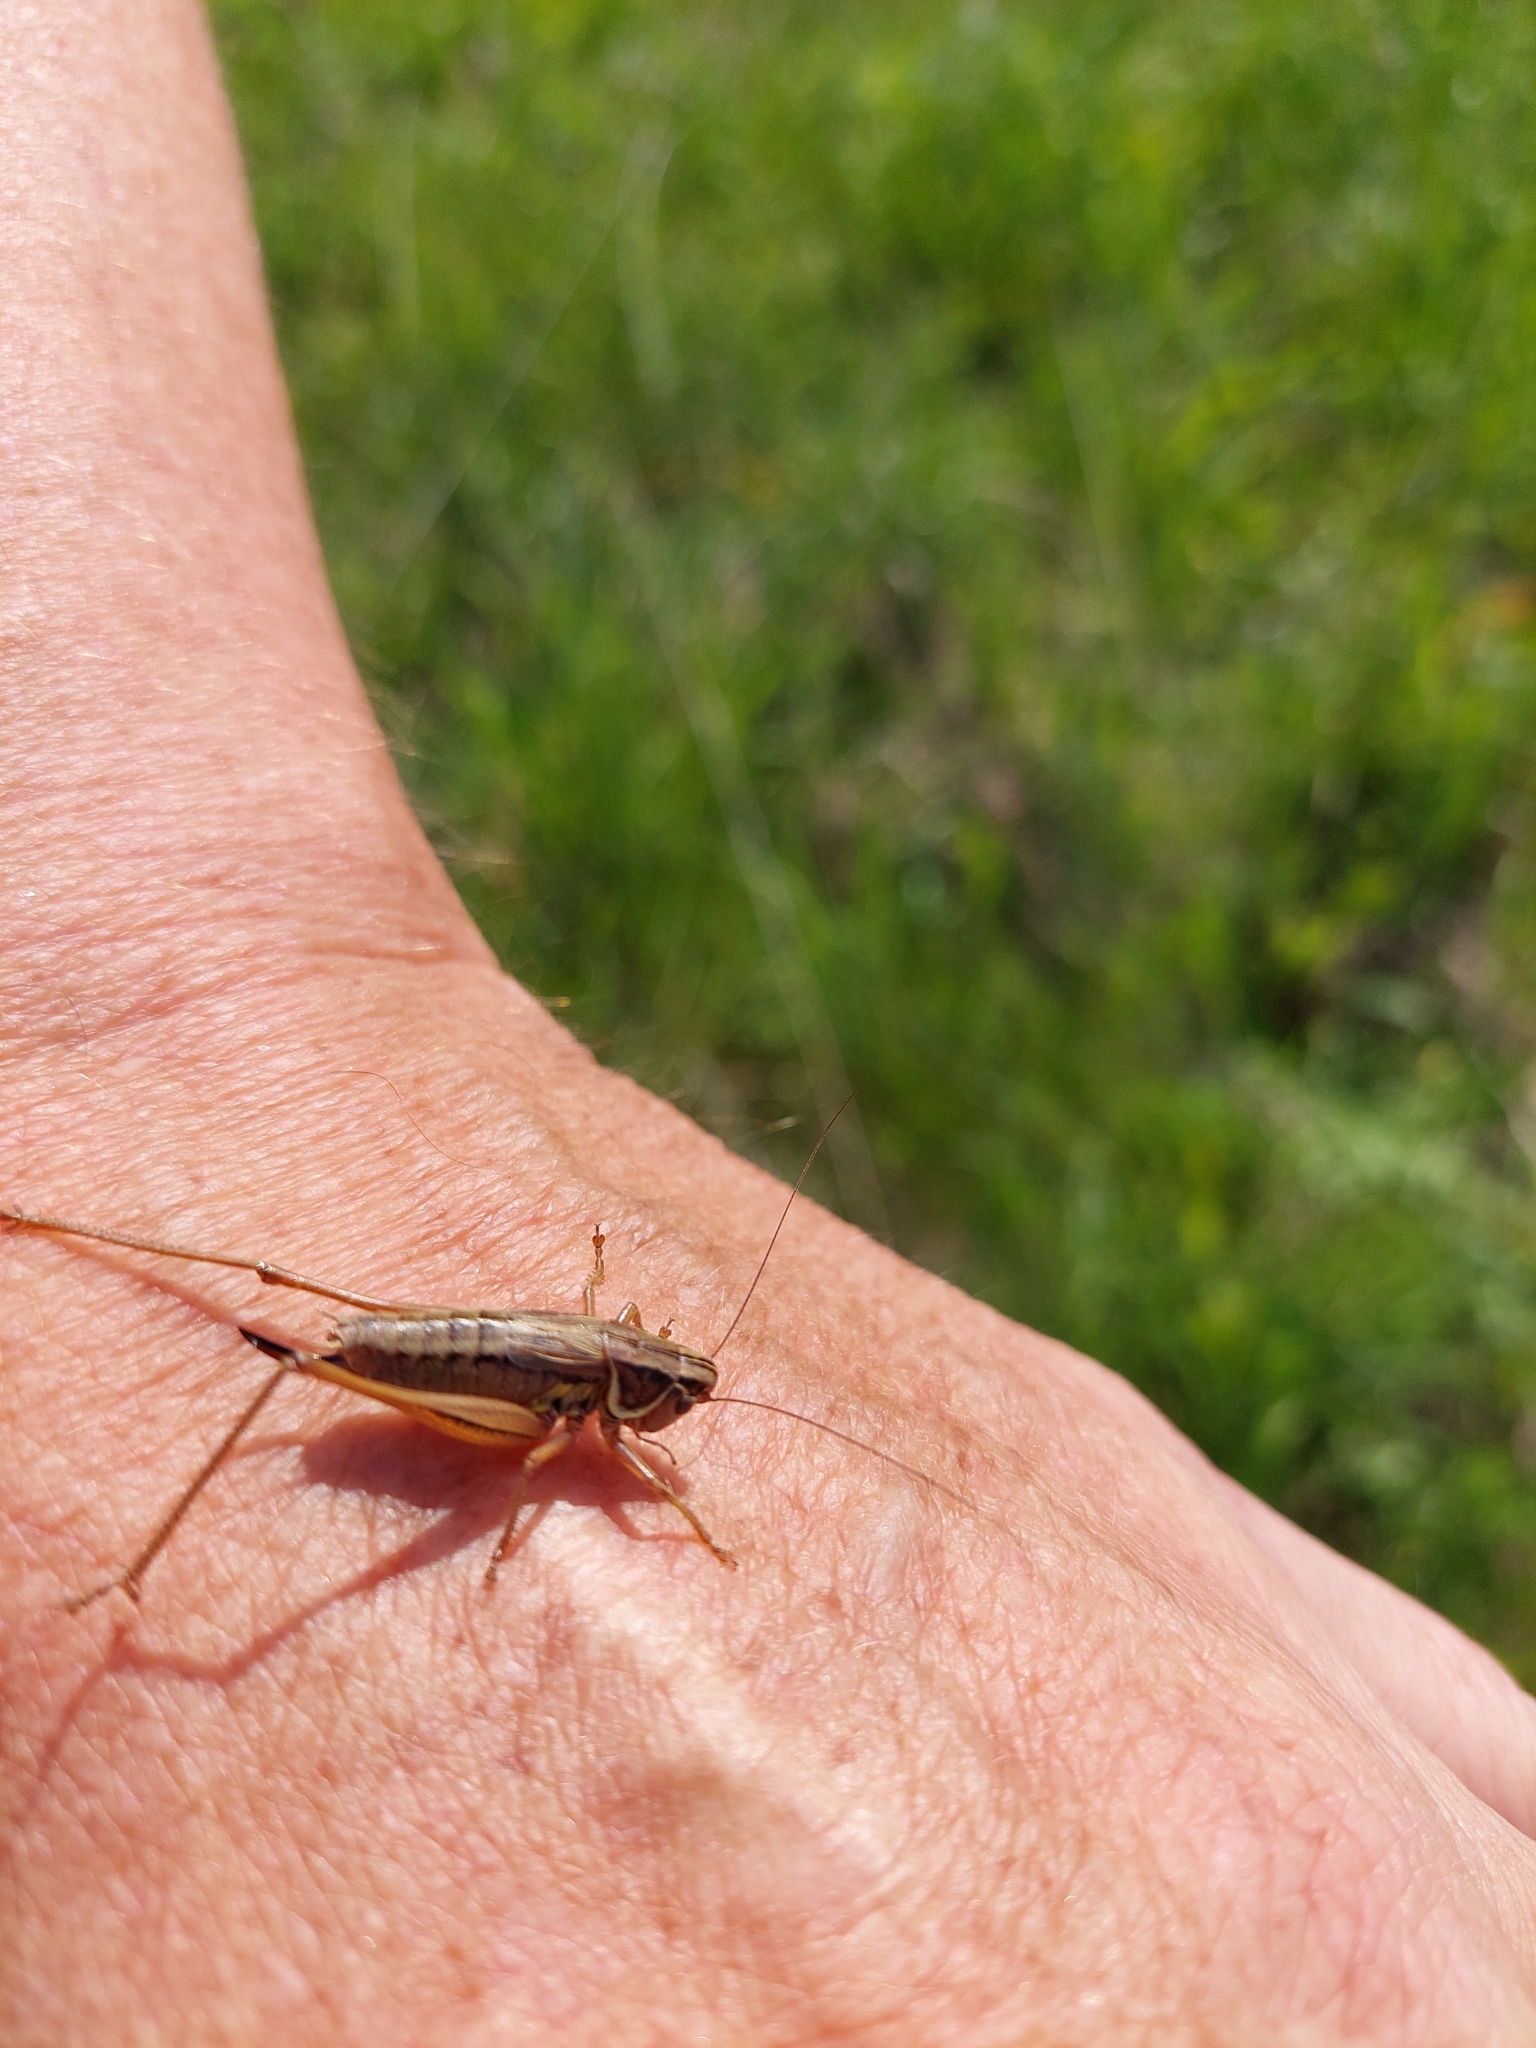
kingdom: Animalia
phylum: Arthropoda
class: Insecta
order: Orthoptera
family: Tettigoniidae
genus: Roeseliana
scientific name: Roeseliana roeselii
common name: Roesel's bush cricket
